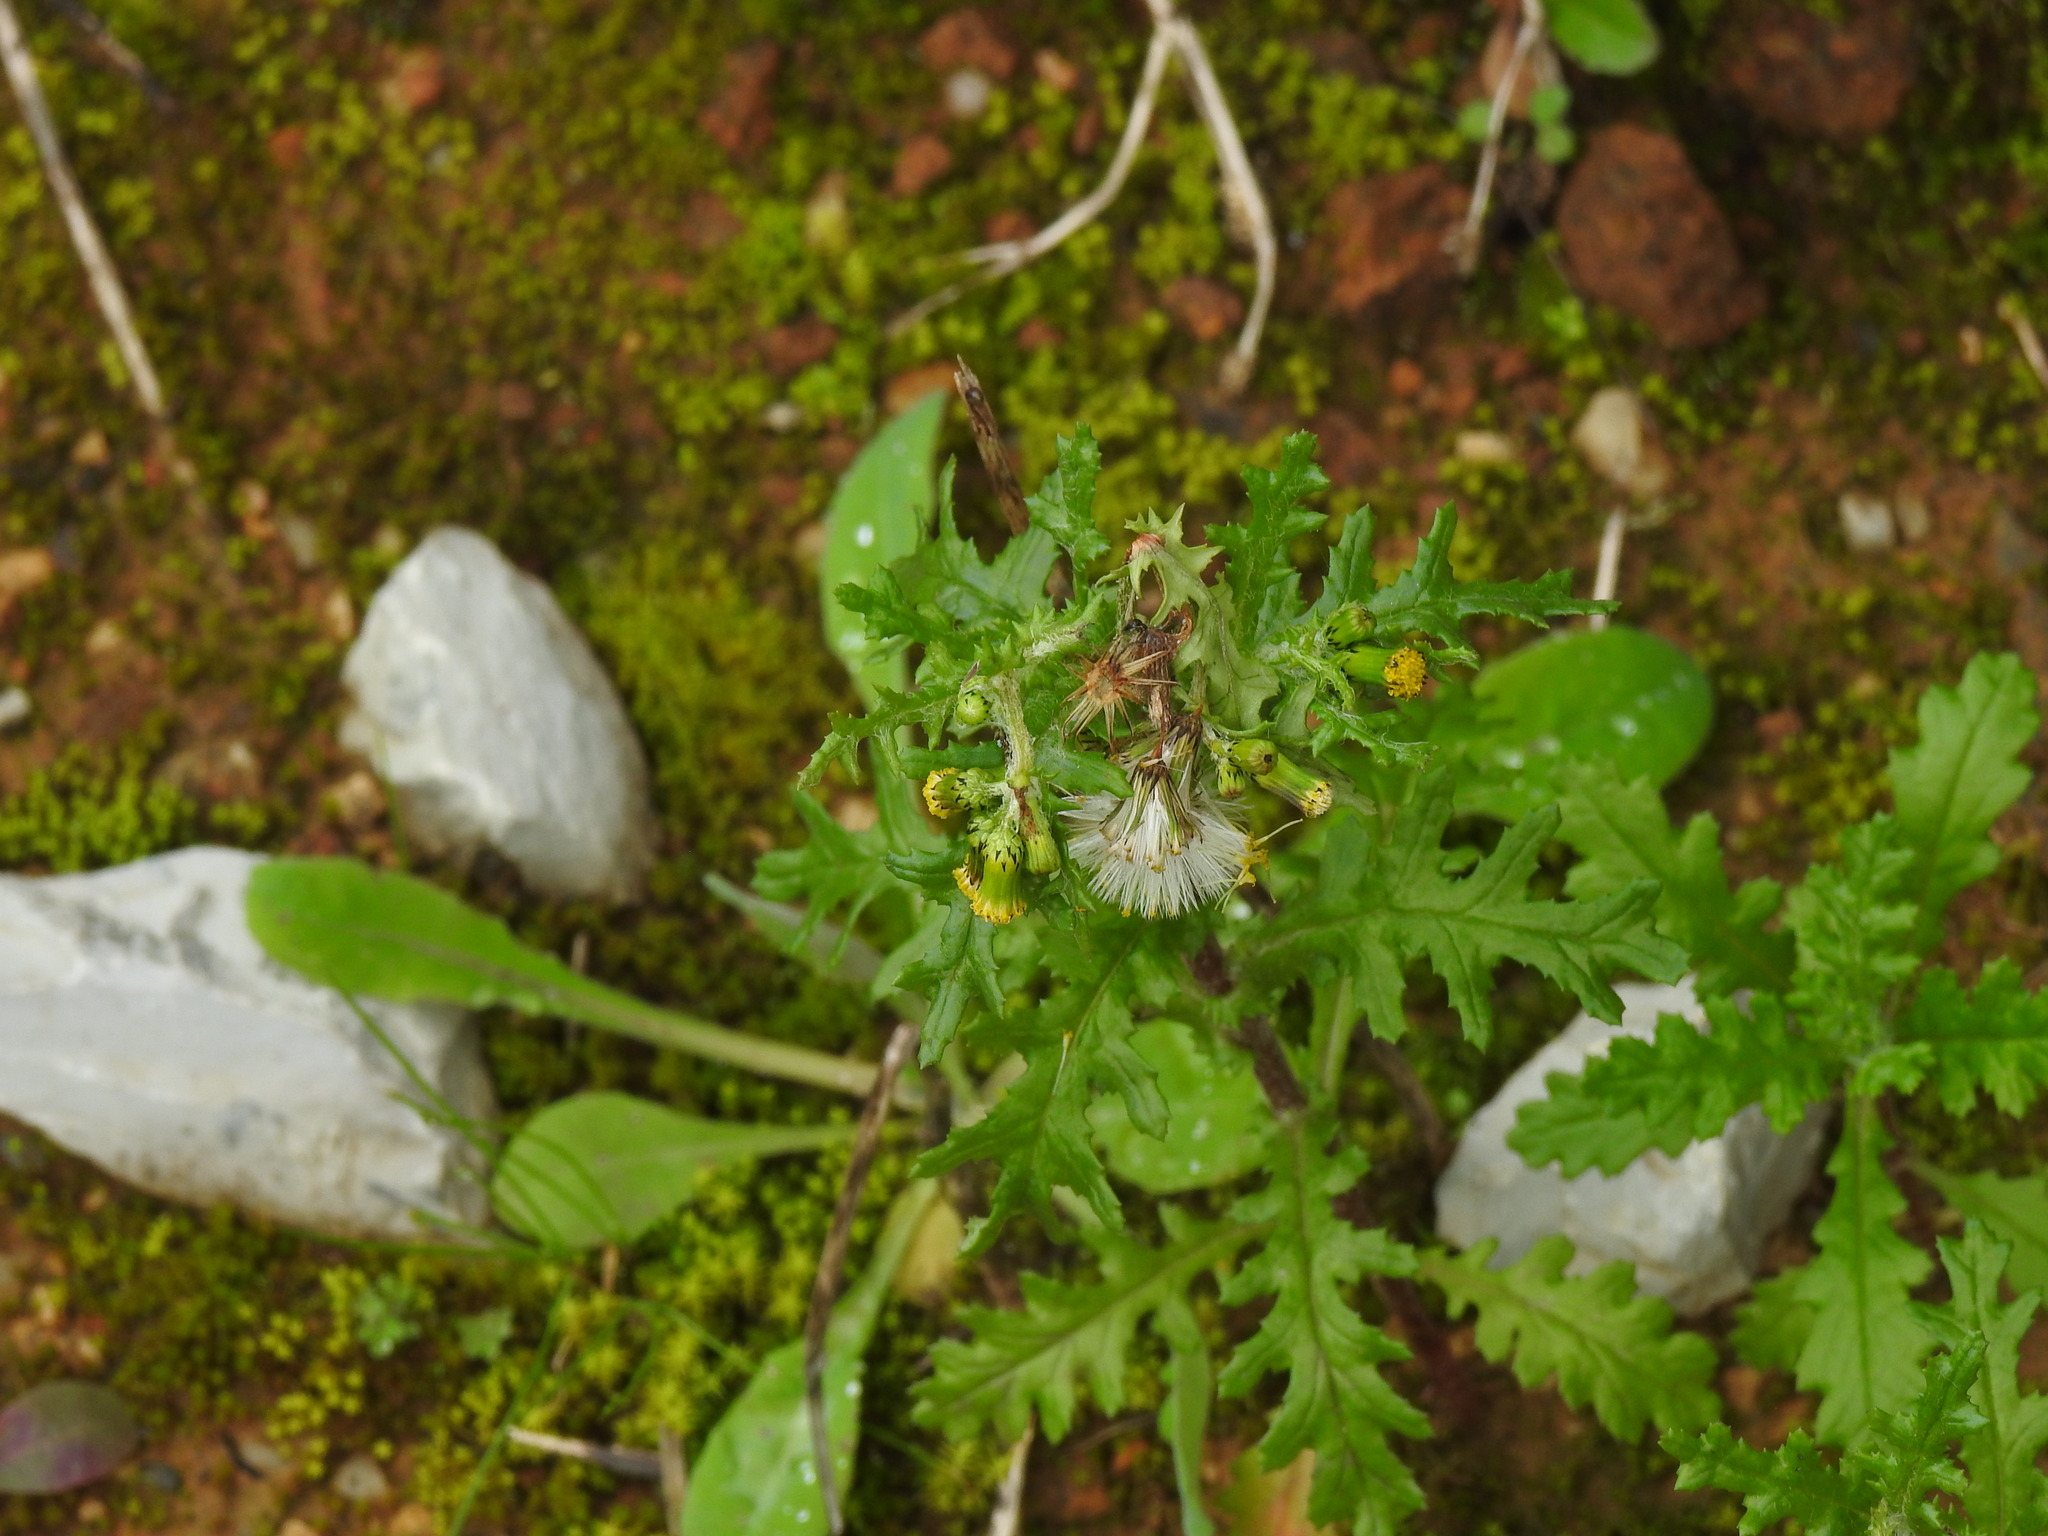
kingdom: Plantae
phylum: Tracheophyta
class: Magnoliopsida
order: Asterales
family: Asteraceae
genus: Senecio
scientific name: Senecio vulgaris
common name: Old-man-in-the-spring
